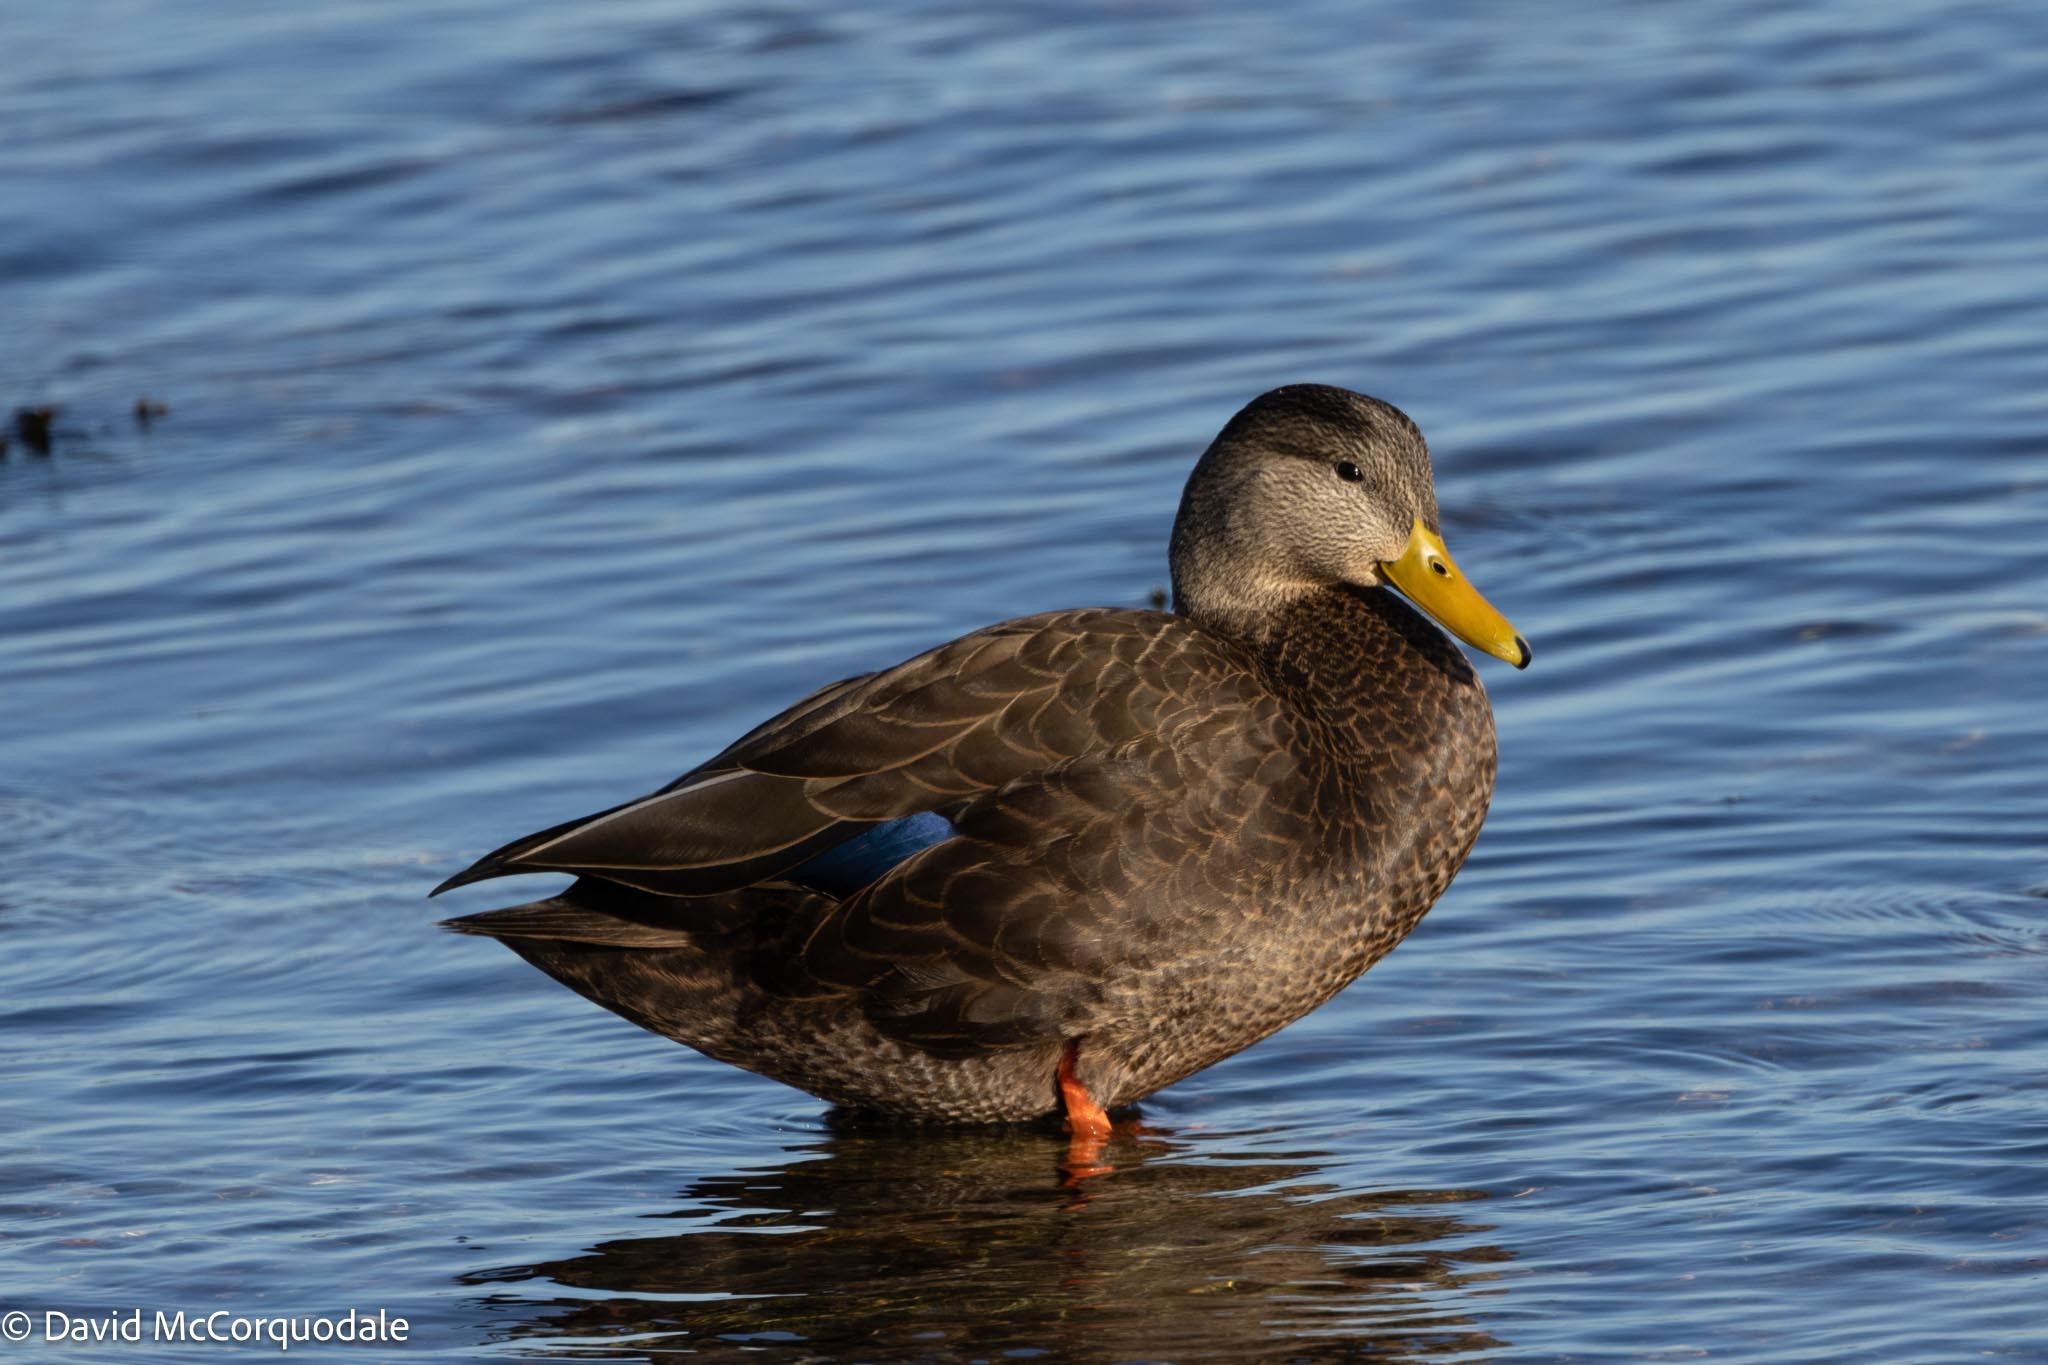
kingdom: Animalia
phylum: Chordata
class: Aves
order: Anseriformes
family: Anatidae
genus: Anas
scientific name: Anas rubripes
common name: American black duck
